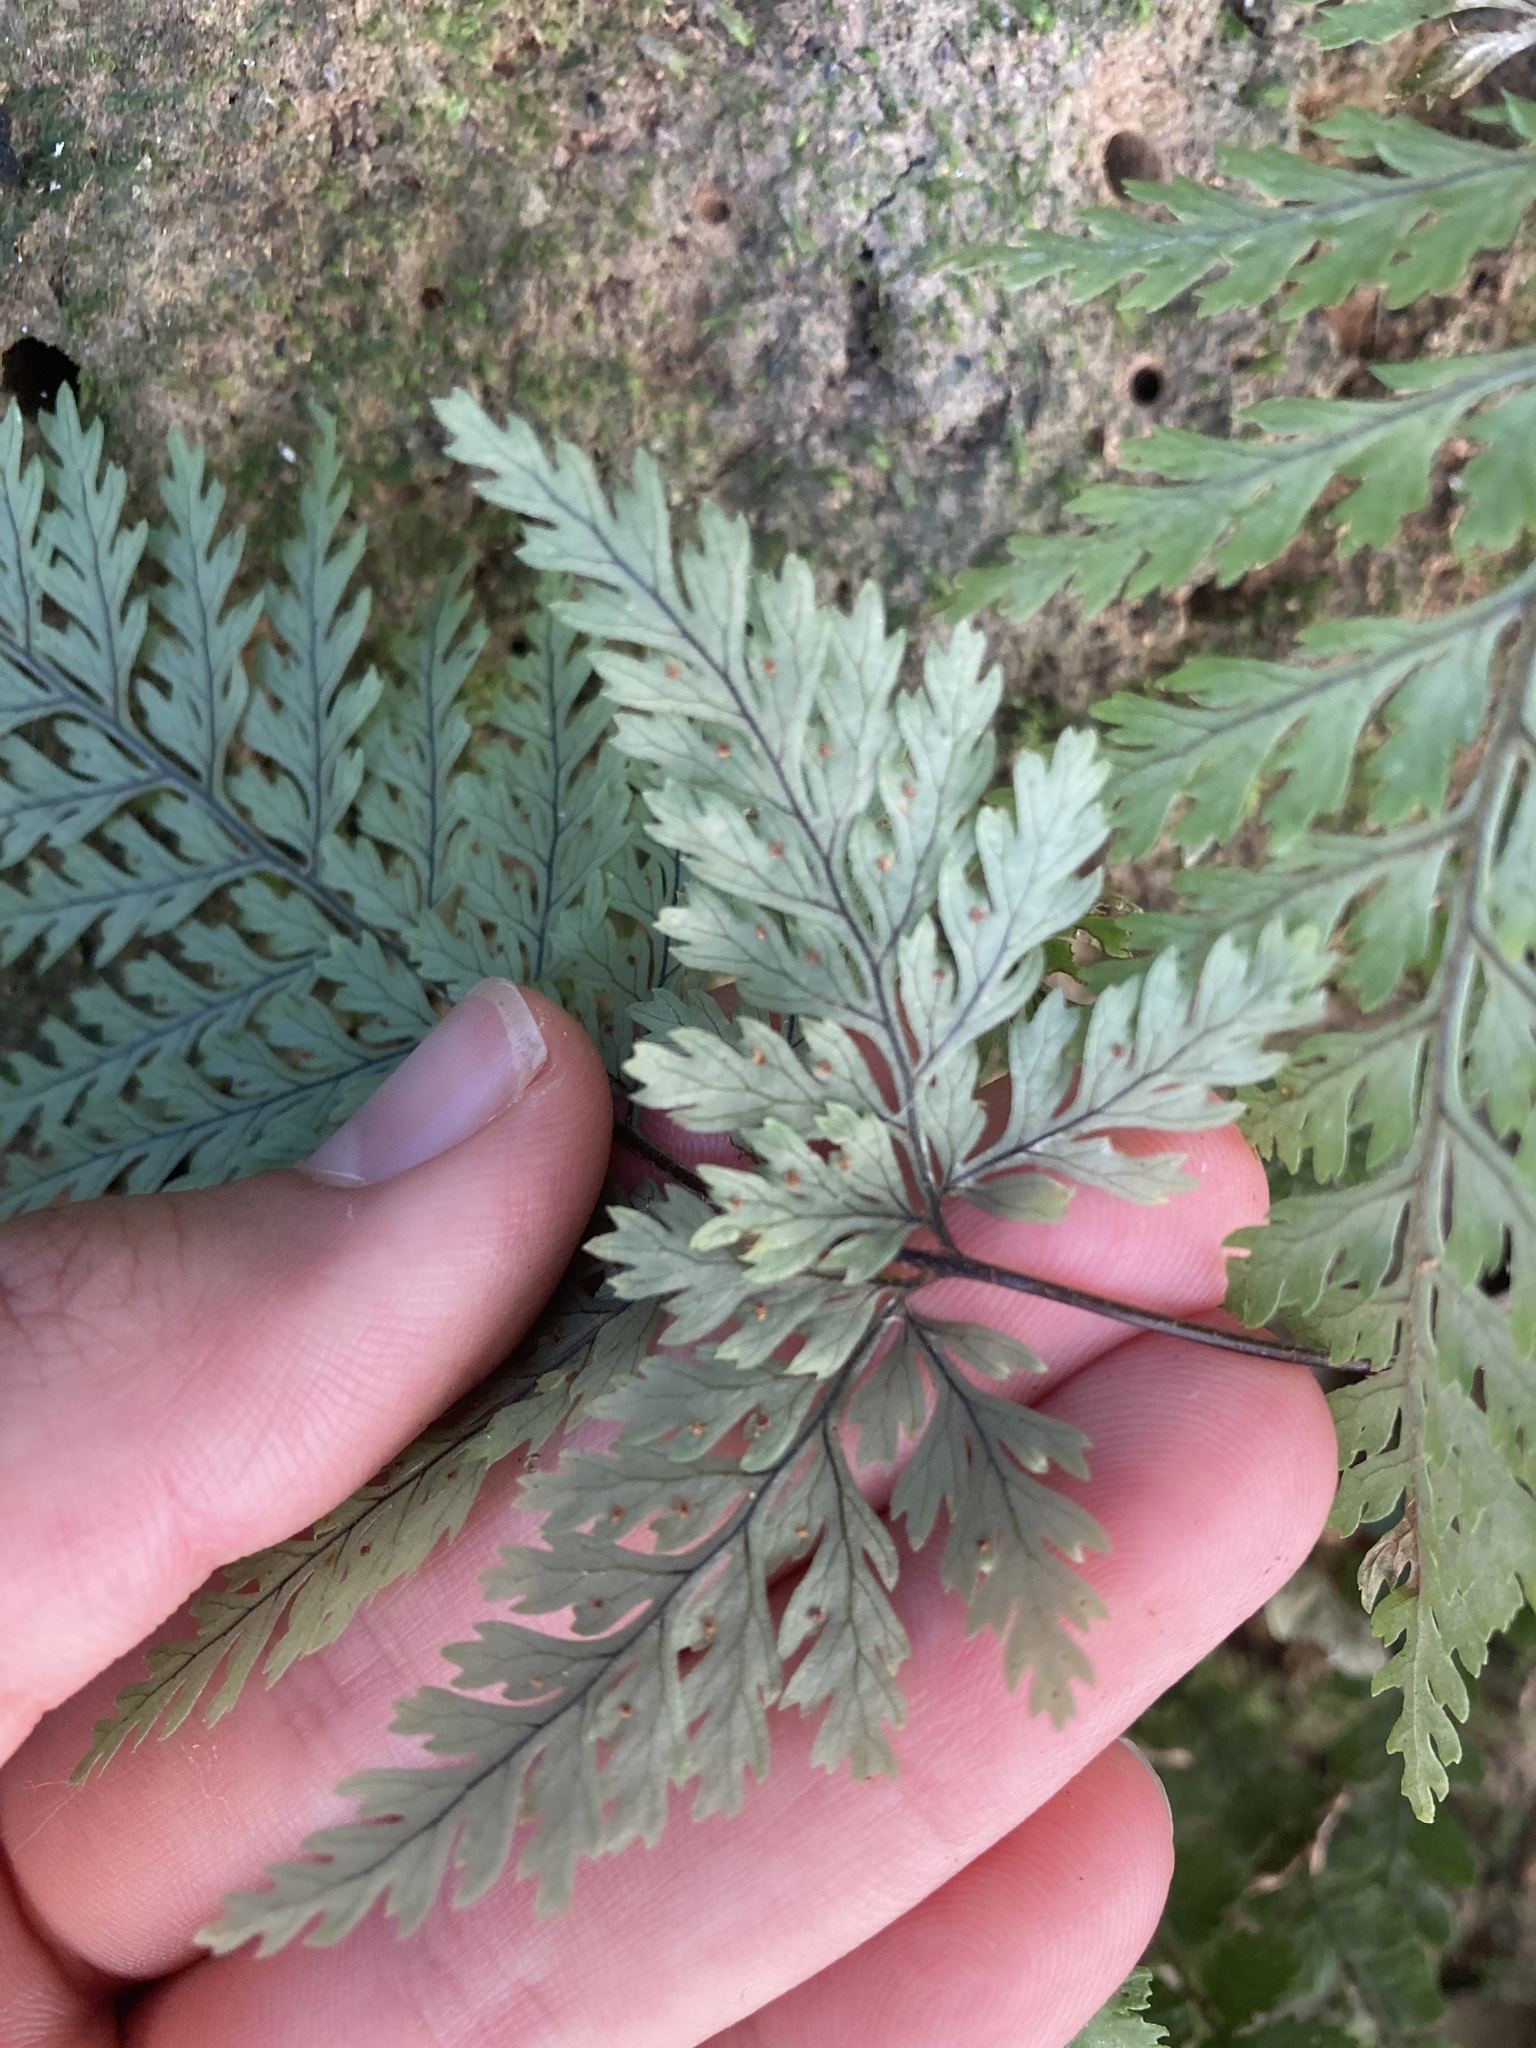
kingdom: Plantae
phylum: Tracheophyta
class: Polypodiopsida
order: Polypodiales
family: Dryopteridaceae
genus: Parapolystichum
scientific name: Parapolystichum glabellum
